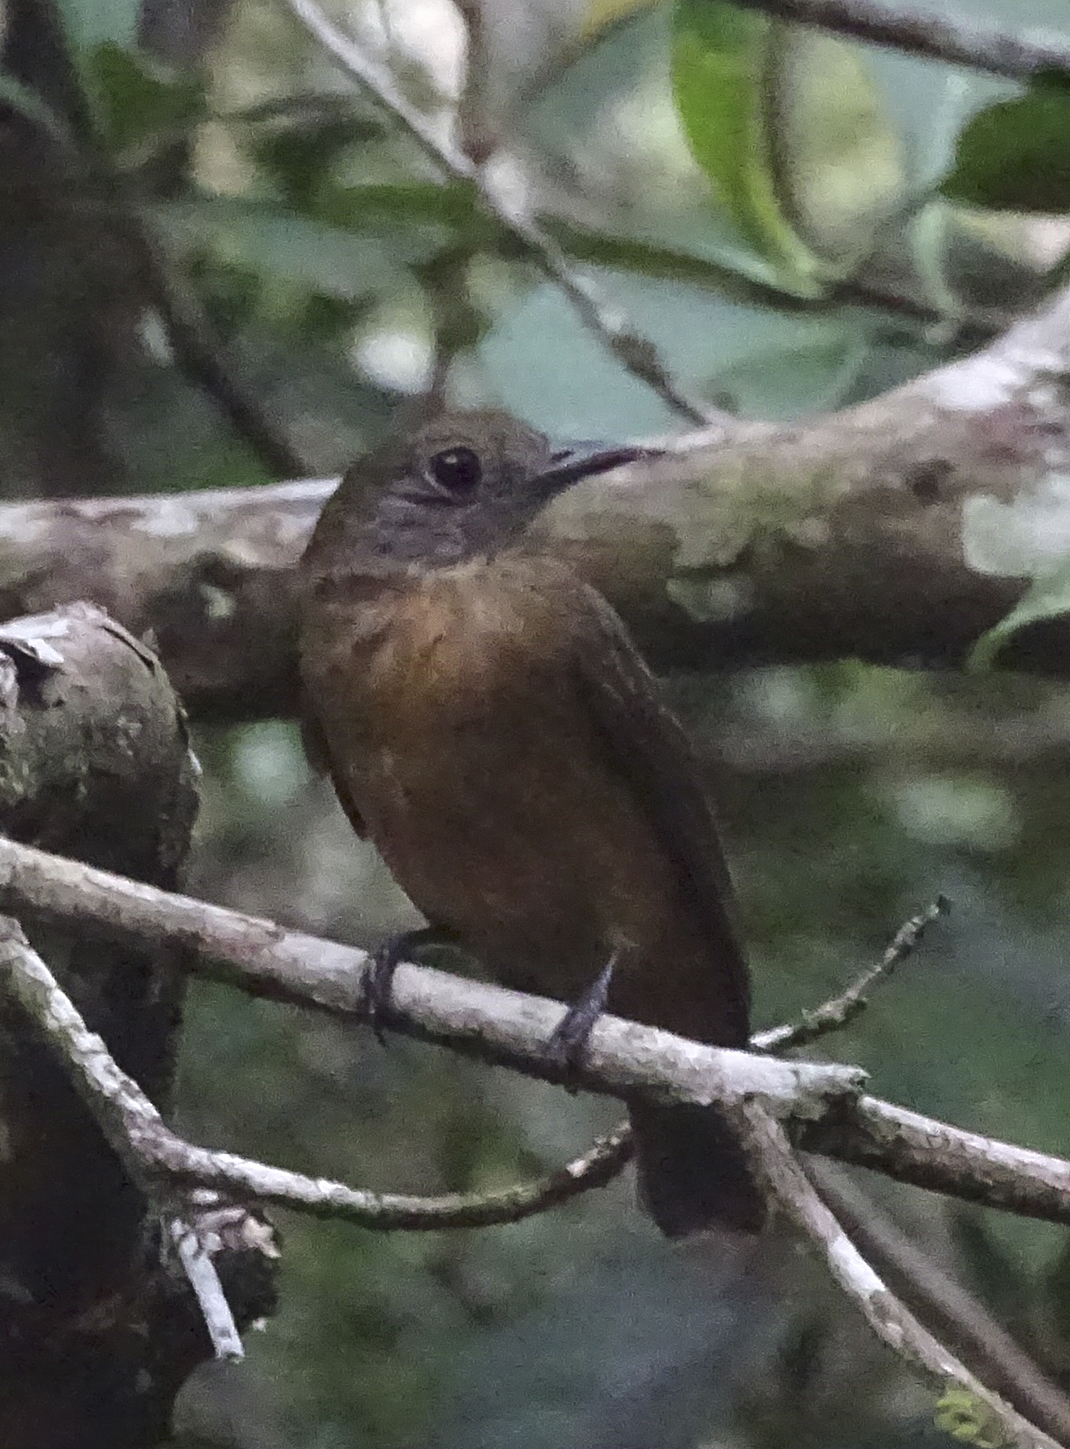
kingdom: Animalia
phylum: Chordata
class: Aves
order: Passeriformes
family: Thamnophilidae
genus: Thamnomanes
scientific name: Thamnomanes caesius
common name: Cinereous antshrike
